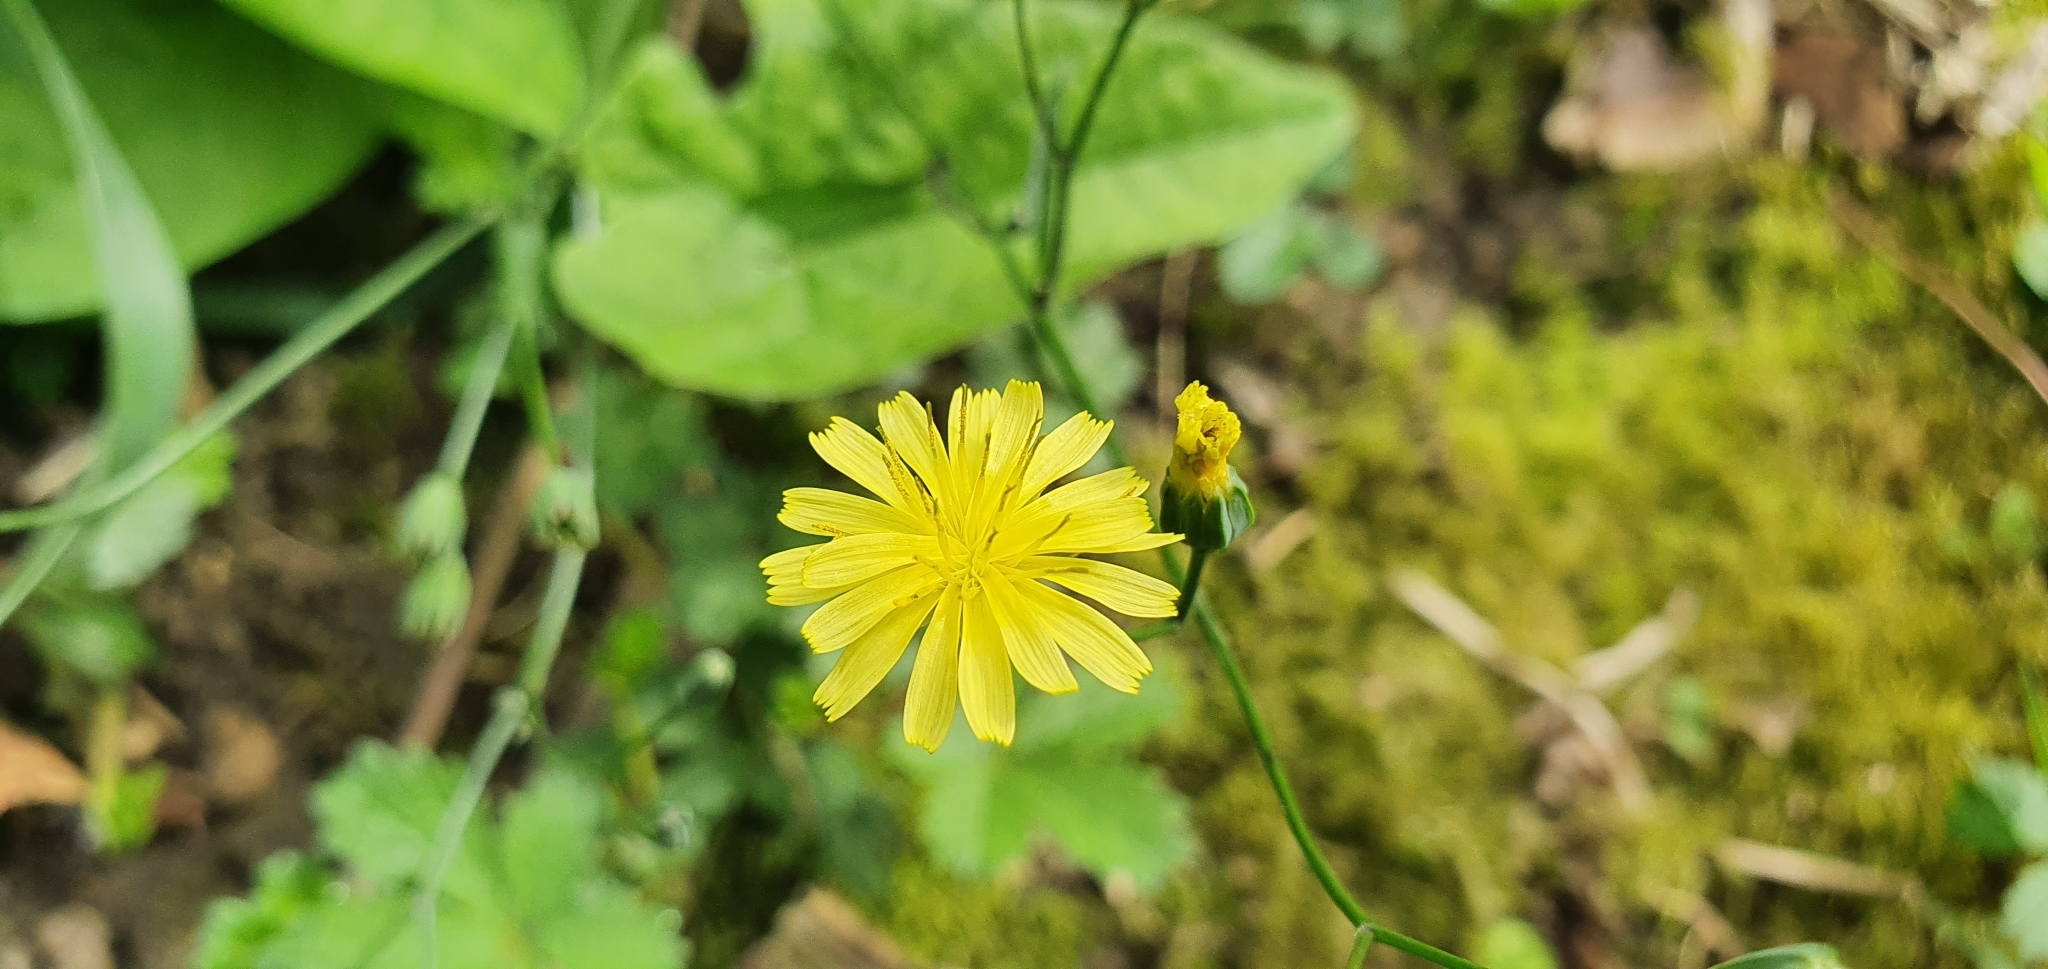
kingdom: Plantae
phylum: Tracheophyta
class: Magnoliopsida
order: Asterales
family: Asteraceae
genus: Lapsana
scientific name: Lapsana communis
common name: Nipplewort
